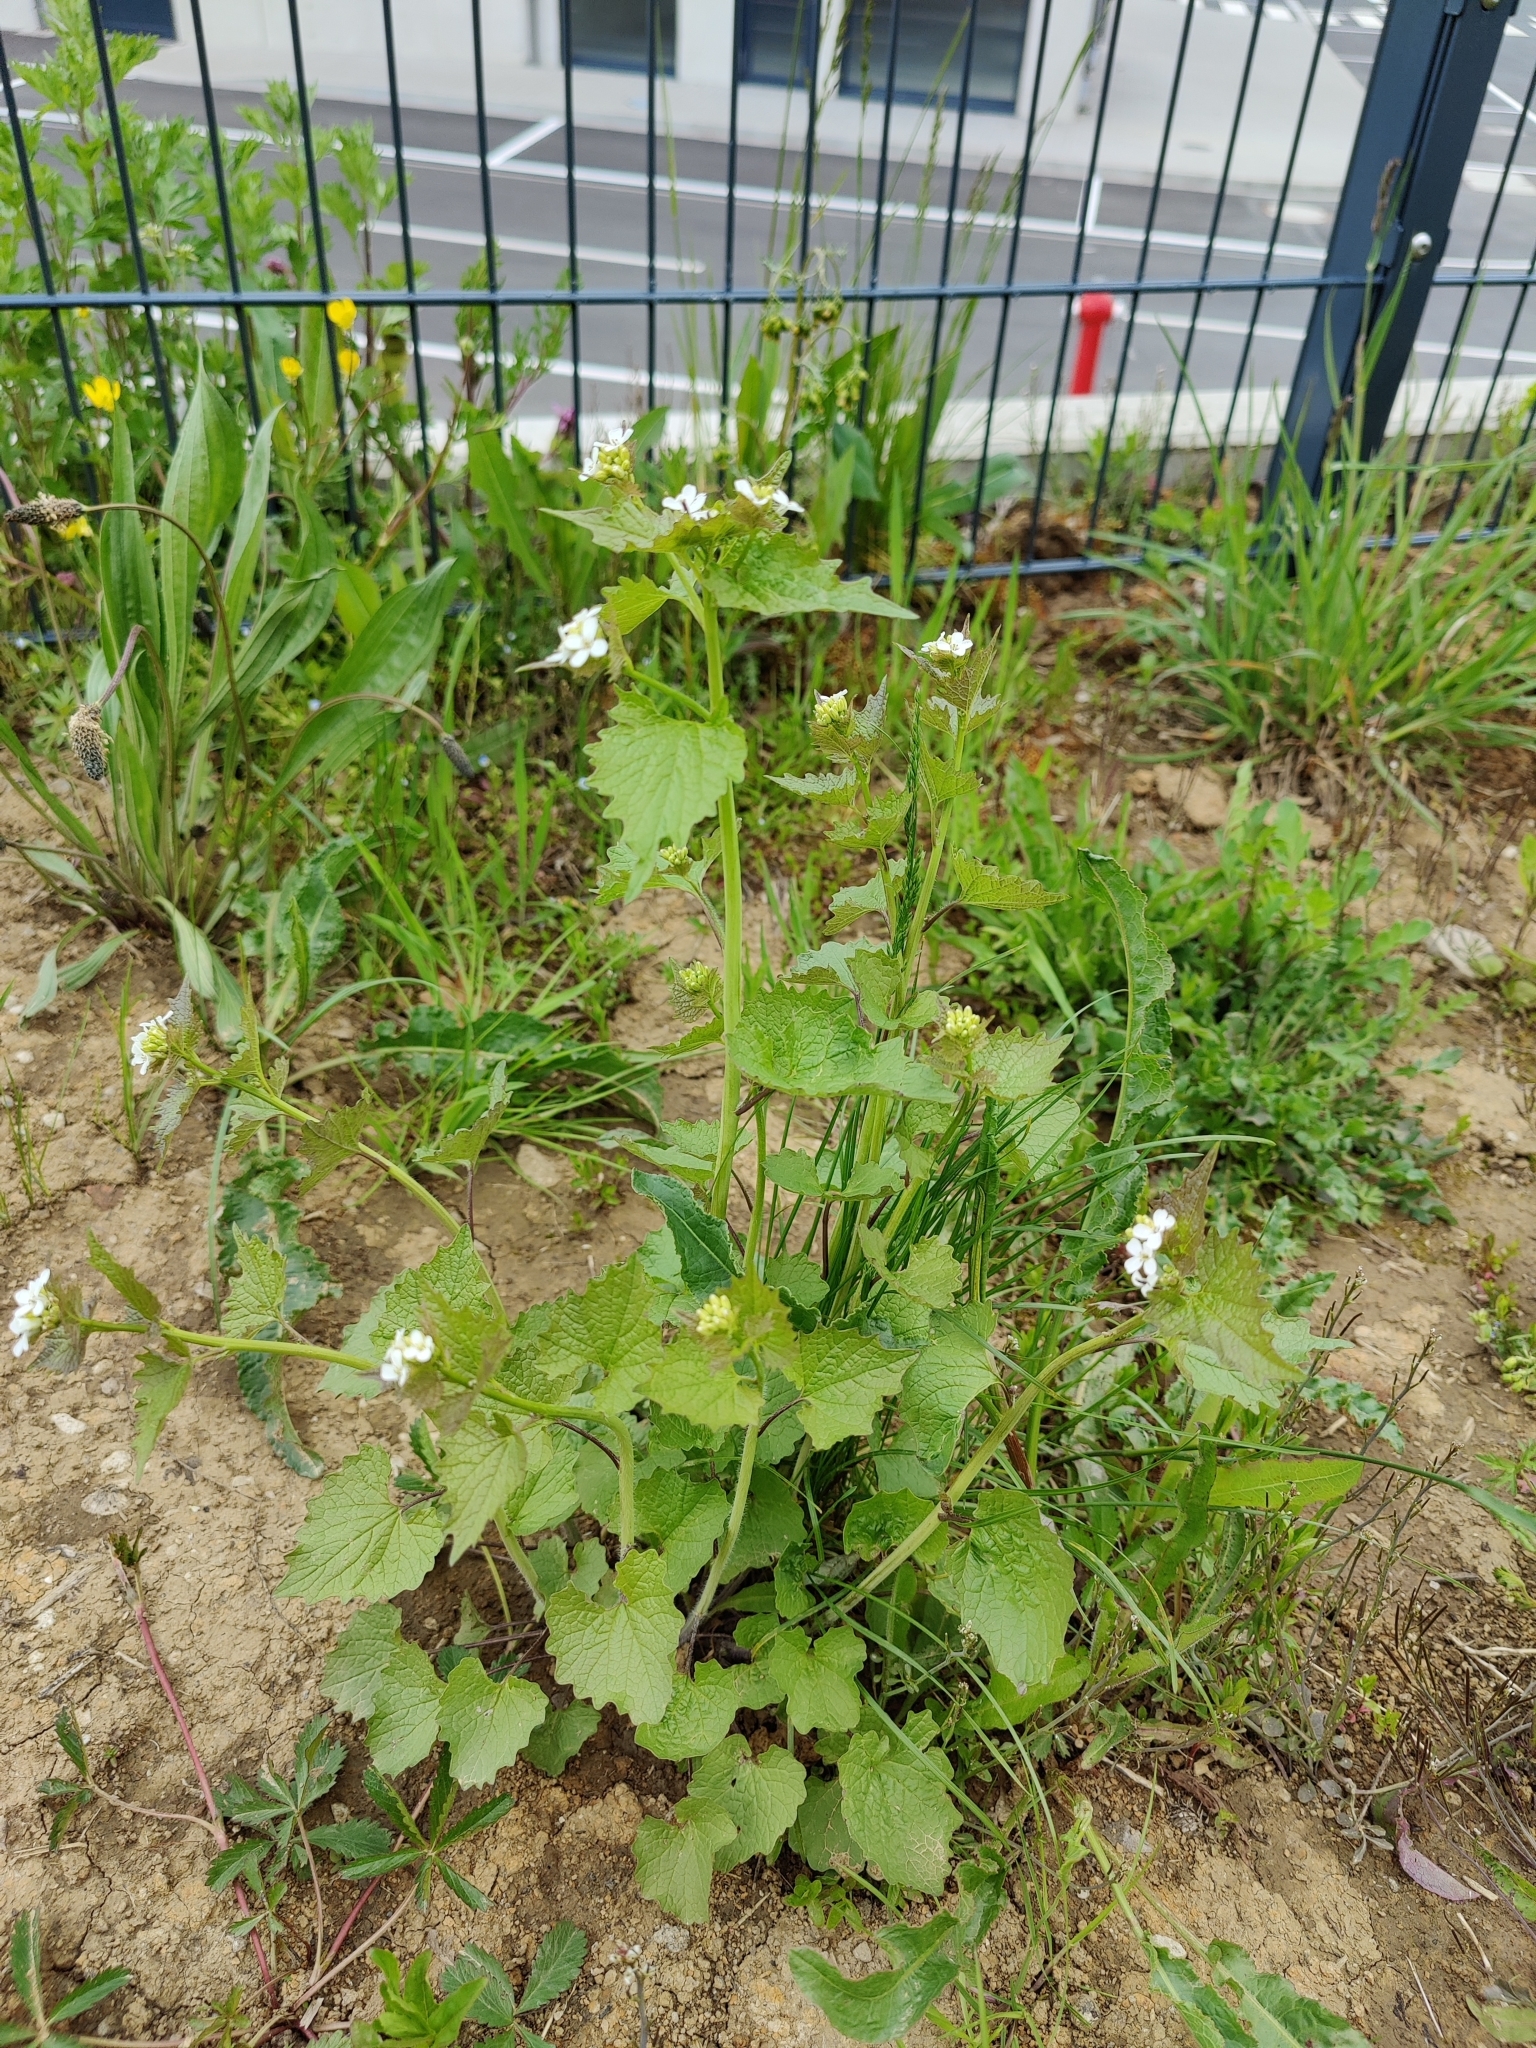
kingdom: Plantae
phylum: Tracheophyta
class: Magnoliopsida
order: Brassicales
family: Brassicaceae
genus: Alliaria
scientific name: Alliaria petiolata
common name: Garlic mustard
